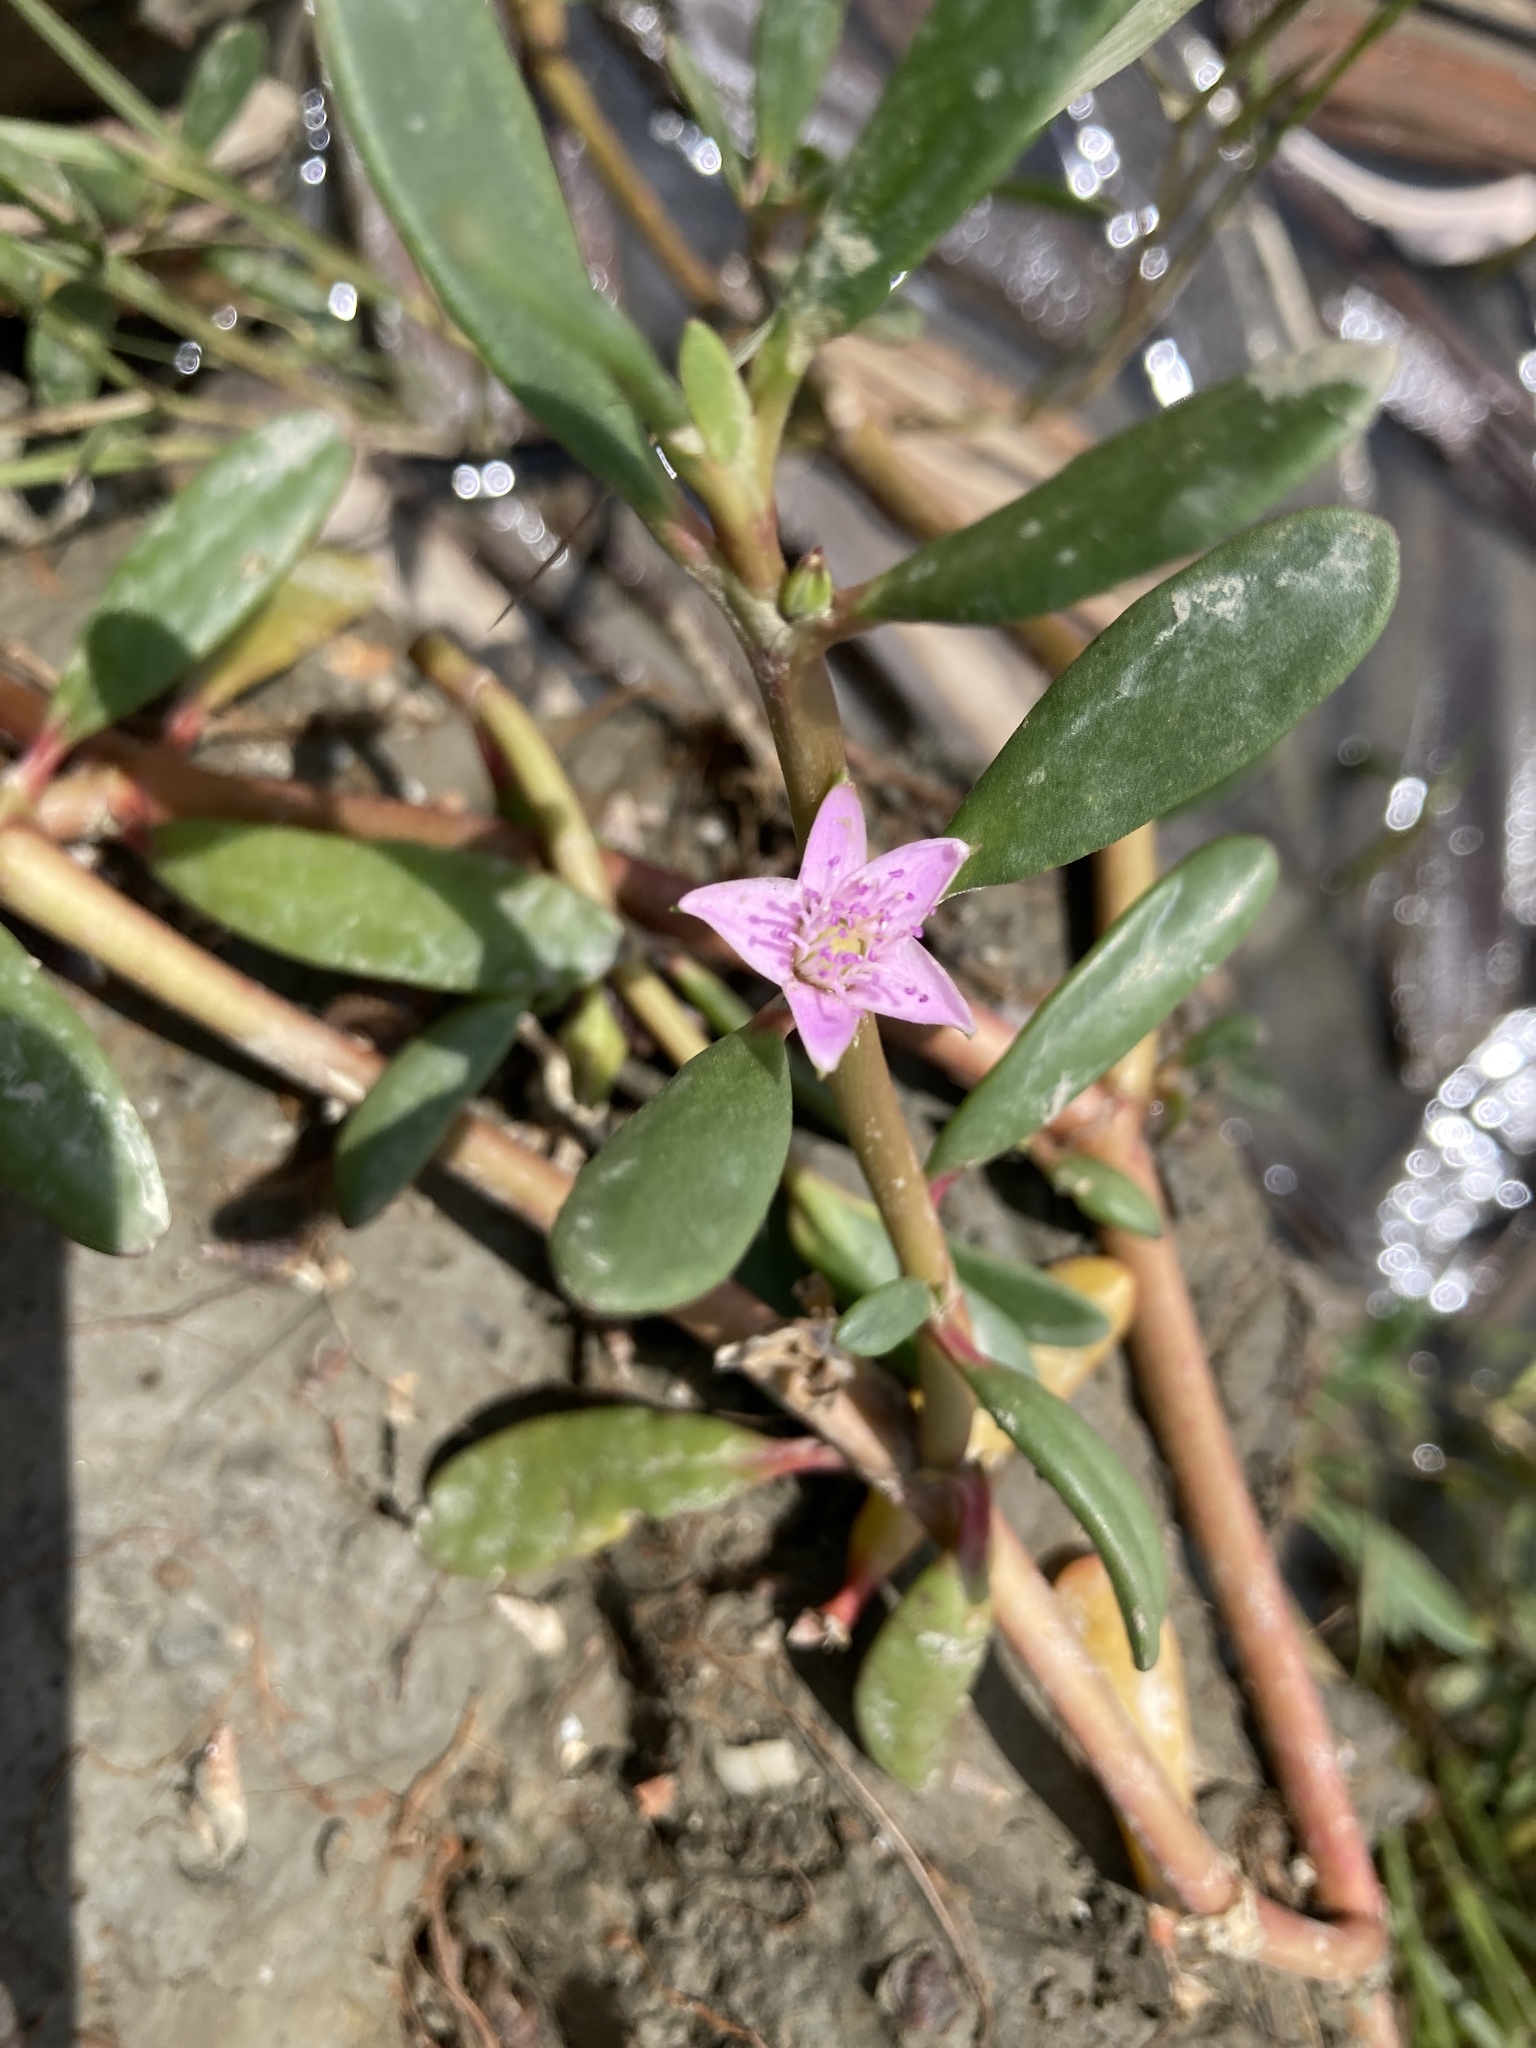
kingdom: Plantae
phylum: Tracheophyta
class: Magnoliopsida
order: Caryophyllales
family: Aizoaceae
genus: Sesuvium
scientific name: Sesuvium portulacastrum
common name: Sea-purslane
